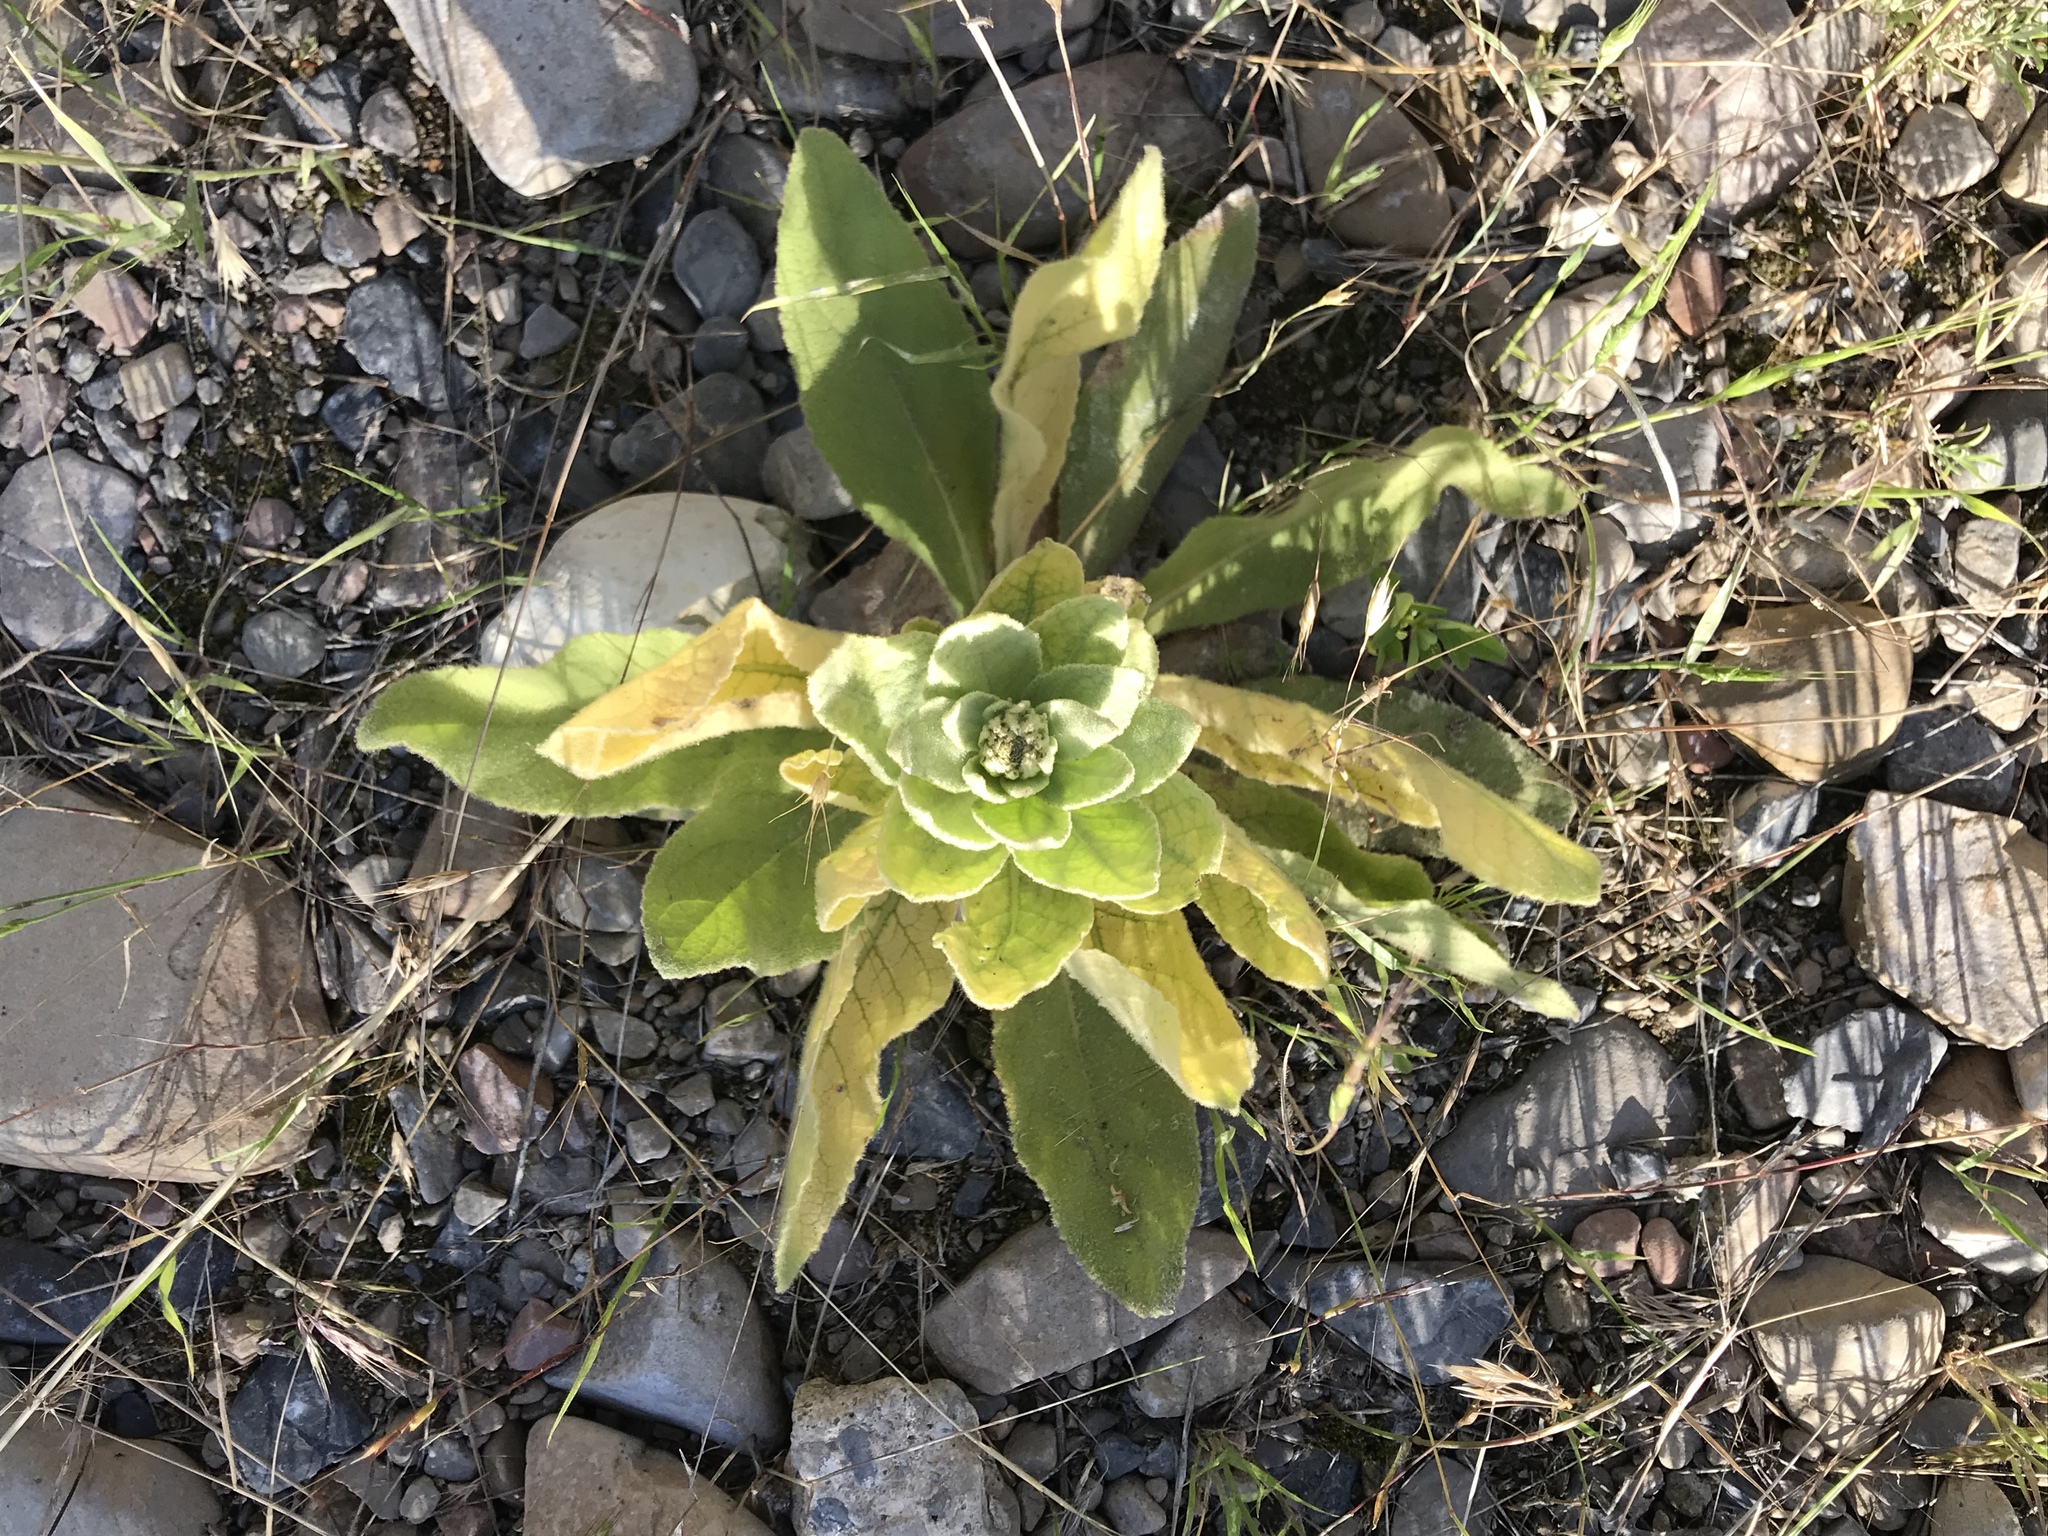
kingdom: Plantae
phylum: Tracheophyta
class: Magnoliopsida
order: Lamiales
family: Scrophulariaceae
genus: Verbascum
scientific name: Verbascum thapsus
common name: Common mullein
